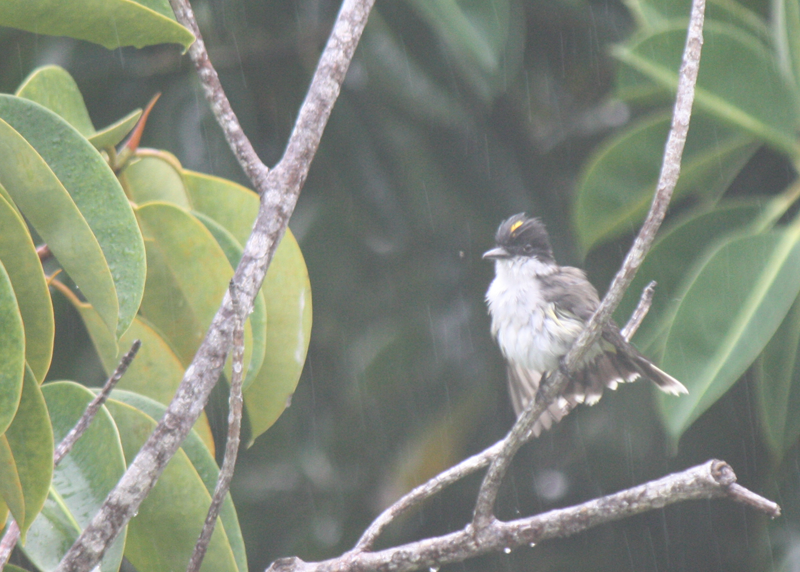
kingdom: Animalia
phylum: Chordata
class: Aves
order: Passeriformes
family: Tyrannidae
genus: Tyrannus
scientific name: Tyrannus caudifasciatus
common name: Loggerhead kingbird
